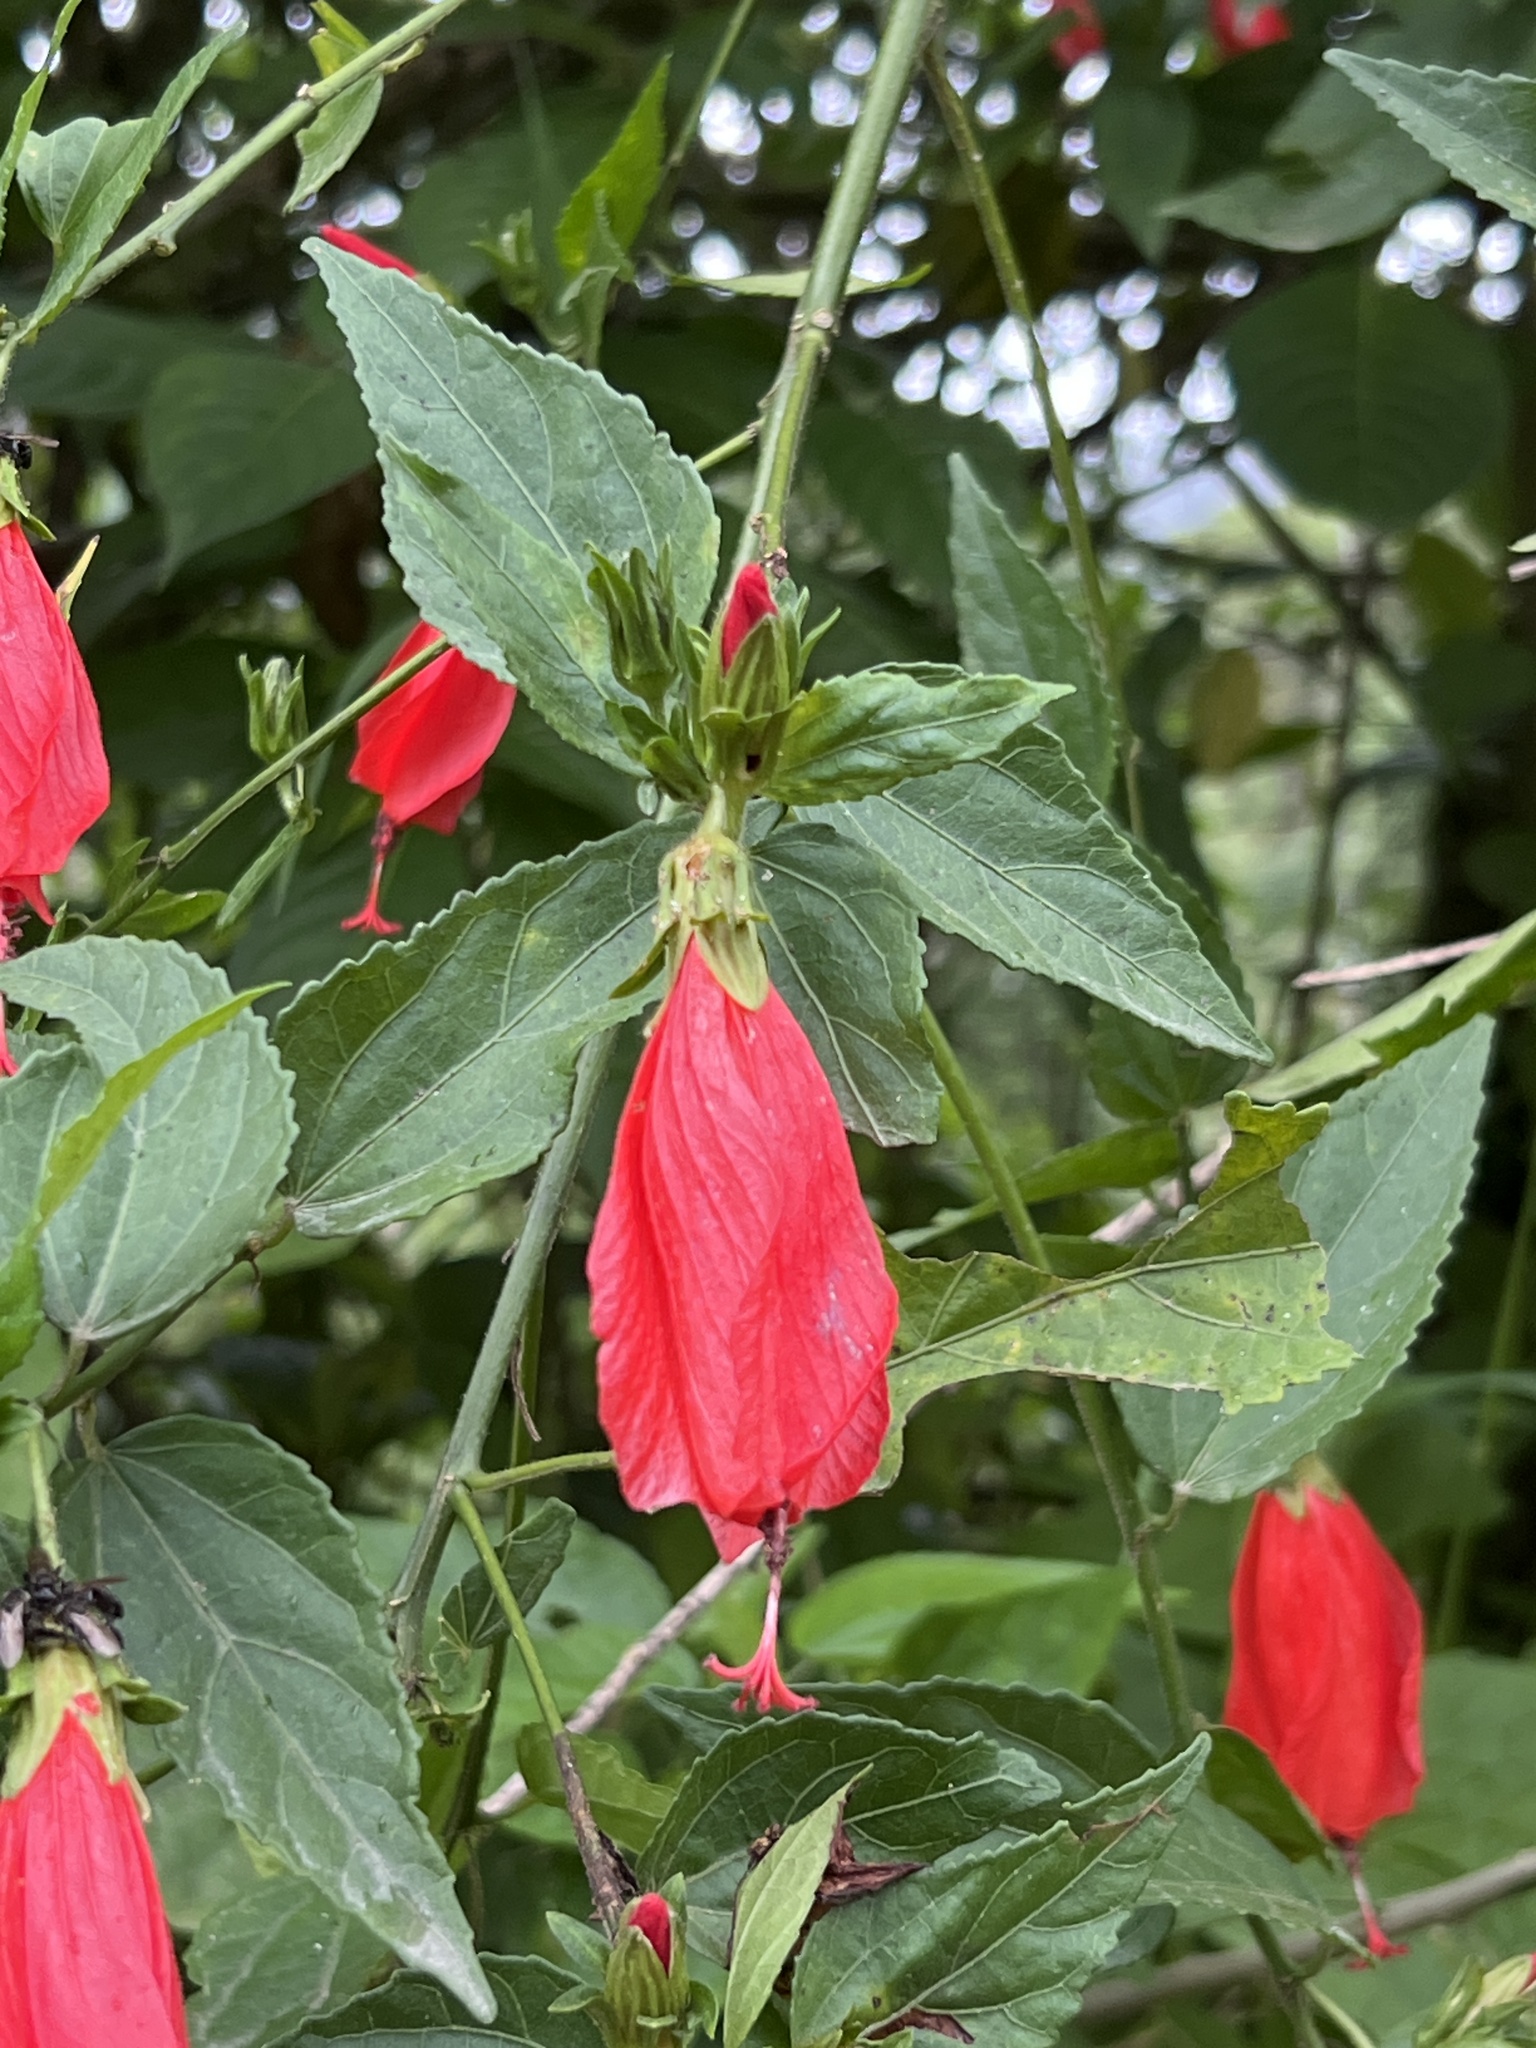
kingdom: Plantae
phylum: Tracheophyta
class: Magnoliopsida
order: Malvales
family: Malvaceae
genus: Malvaviscus
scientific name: Malvaviscus penduliflorus
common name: Mazapan
